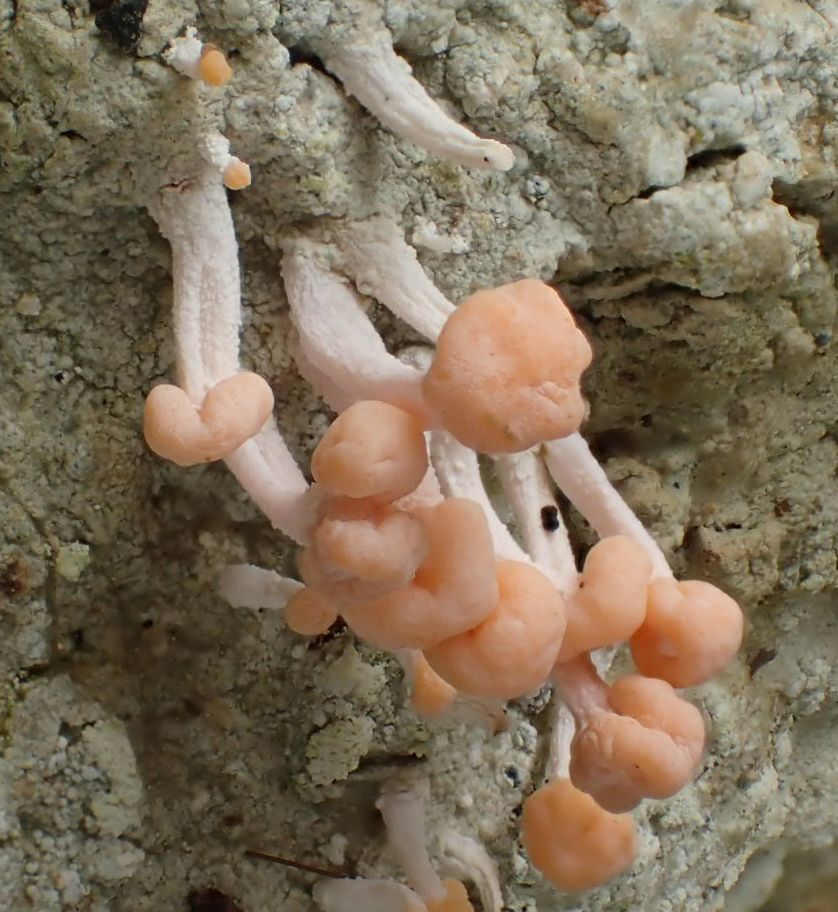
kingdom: Fungi
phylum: Ascomycota
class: Lecanoromycetes
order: Pertusariales
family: Icmadophilaceae
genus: Dibaeis
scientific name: Dibaeis arcuata
